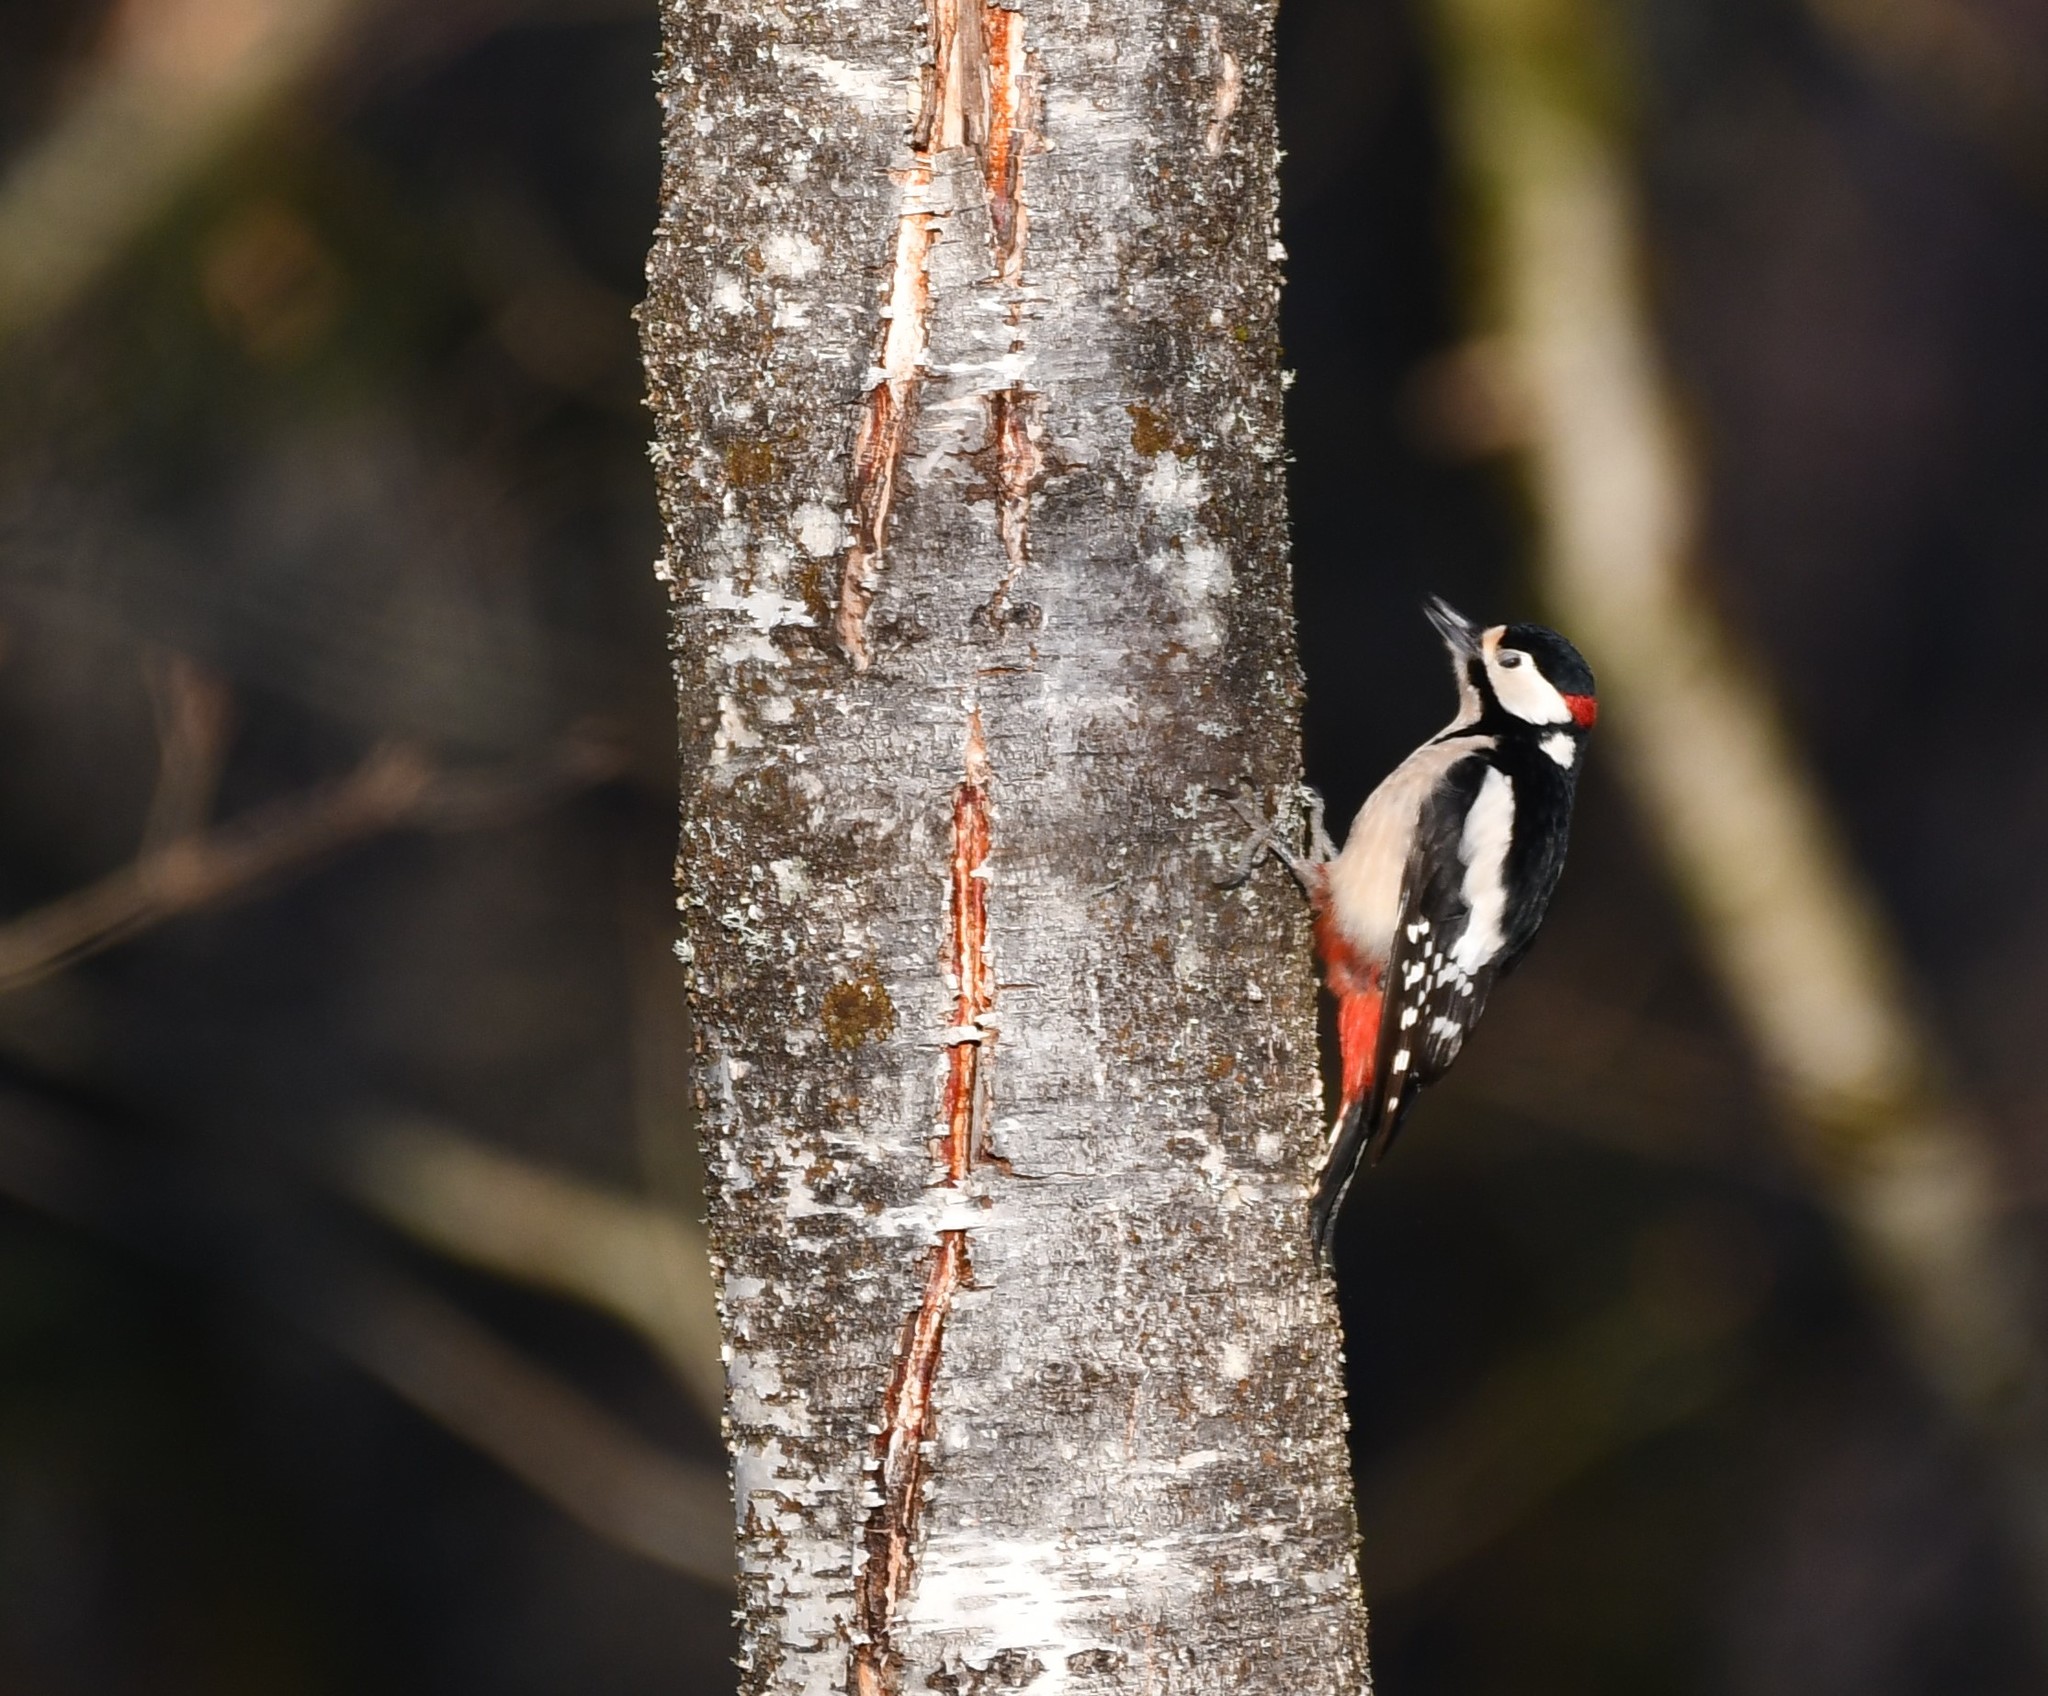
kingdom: Animalia
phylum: Chordata
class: Aves
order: Piciformes
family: Picidae
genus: Dendrocopos
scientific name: Dendrocopos major
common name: Great spotted woodpecker
